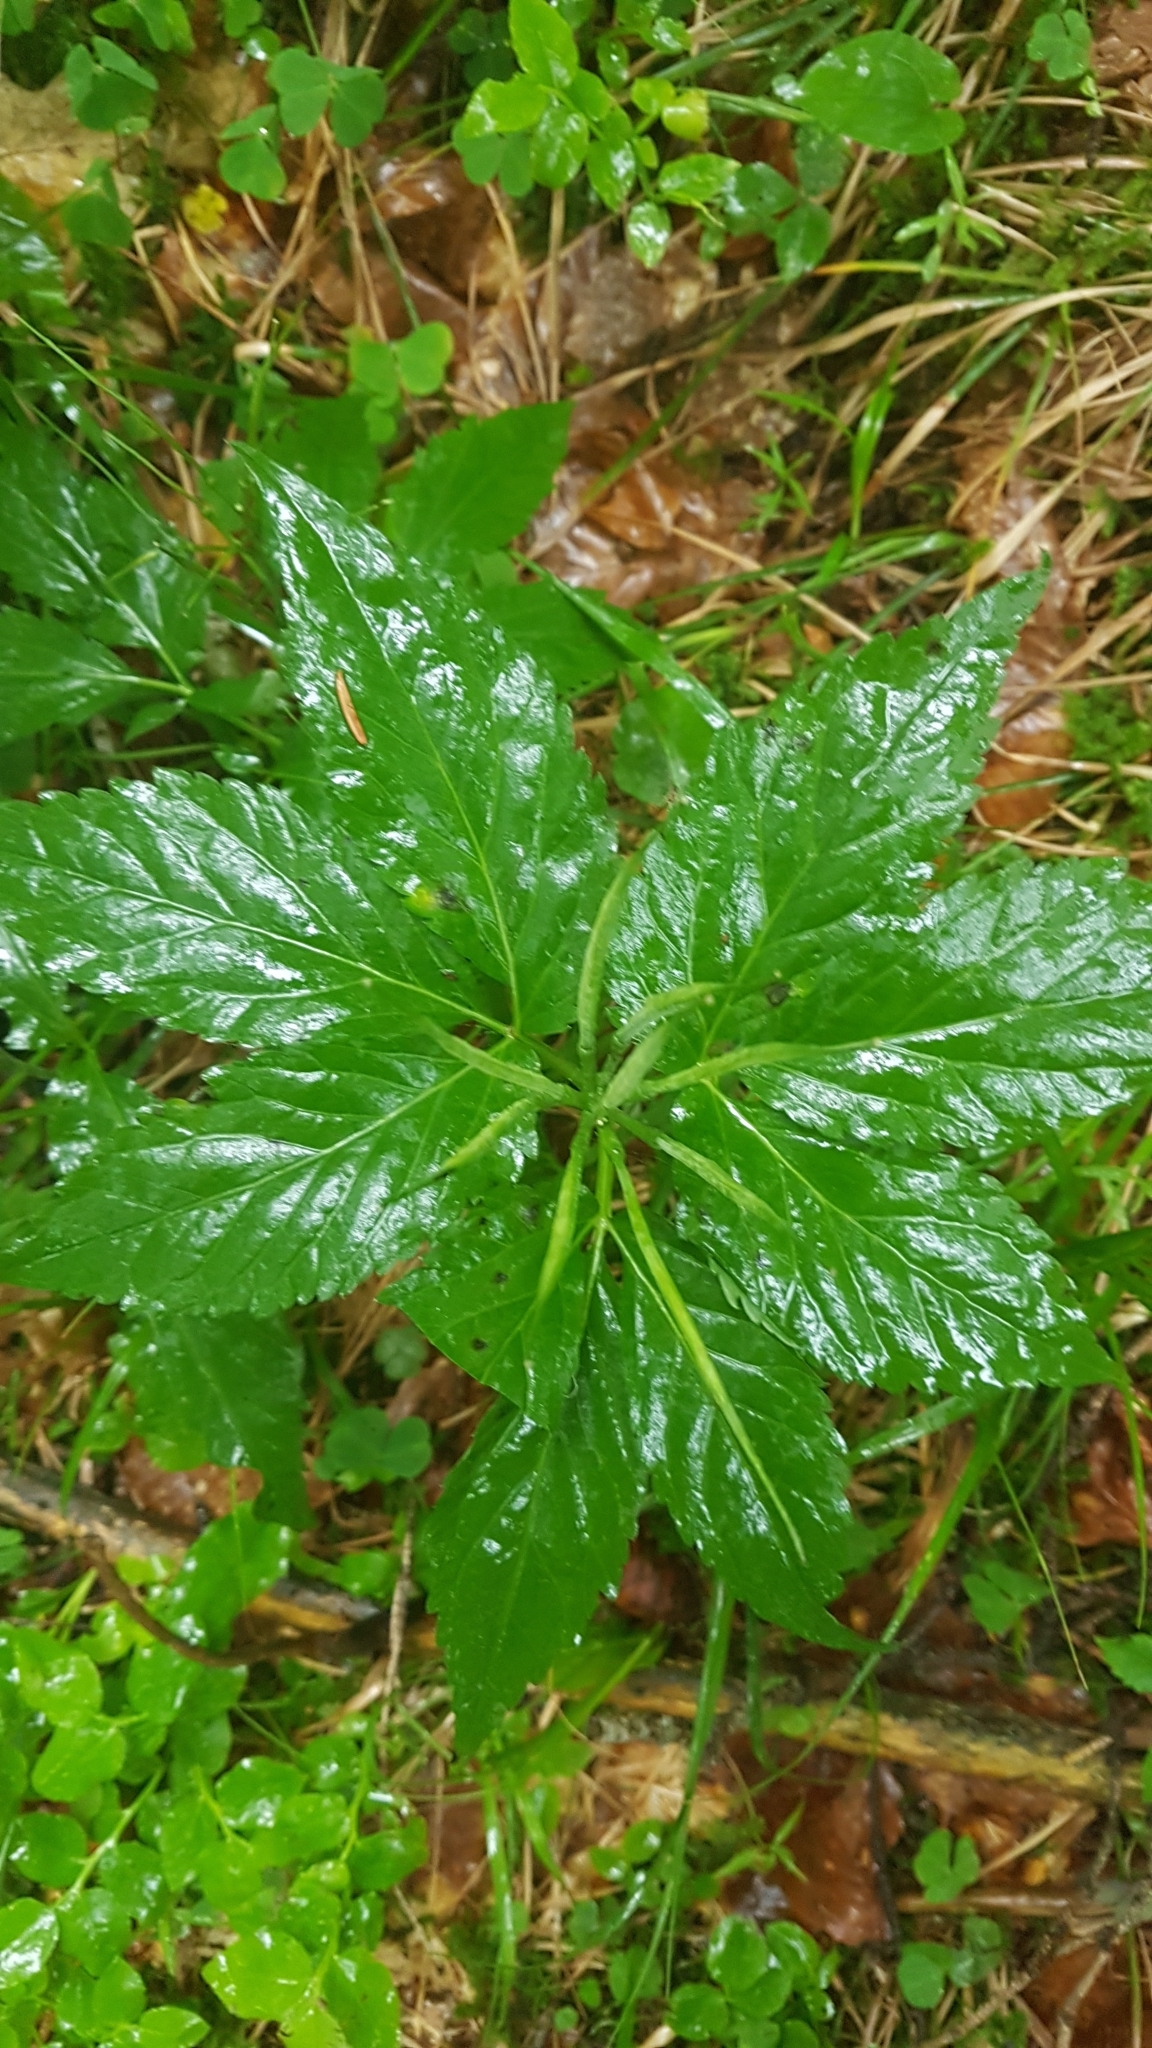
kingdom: Plantae
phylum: Tracheophyta
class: Magnoliopsida
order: Brassicales
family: Brassicaceae
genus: Cardamine
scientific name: Cardamine enneaphyllos
